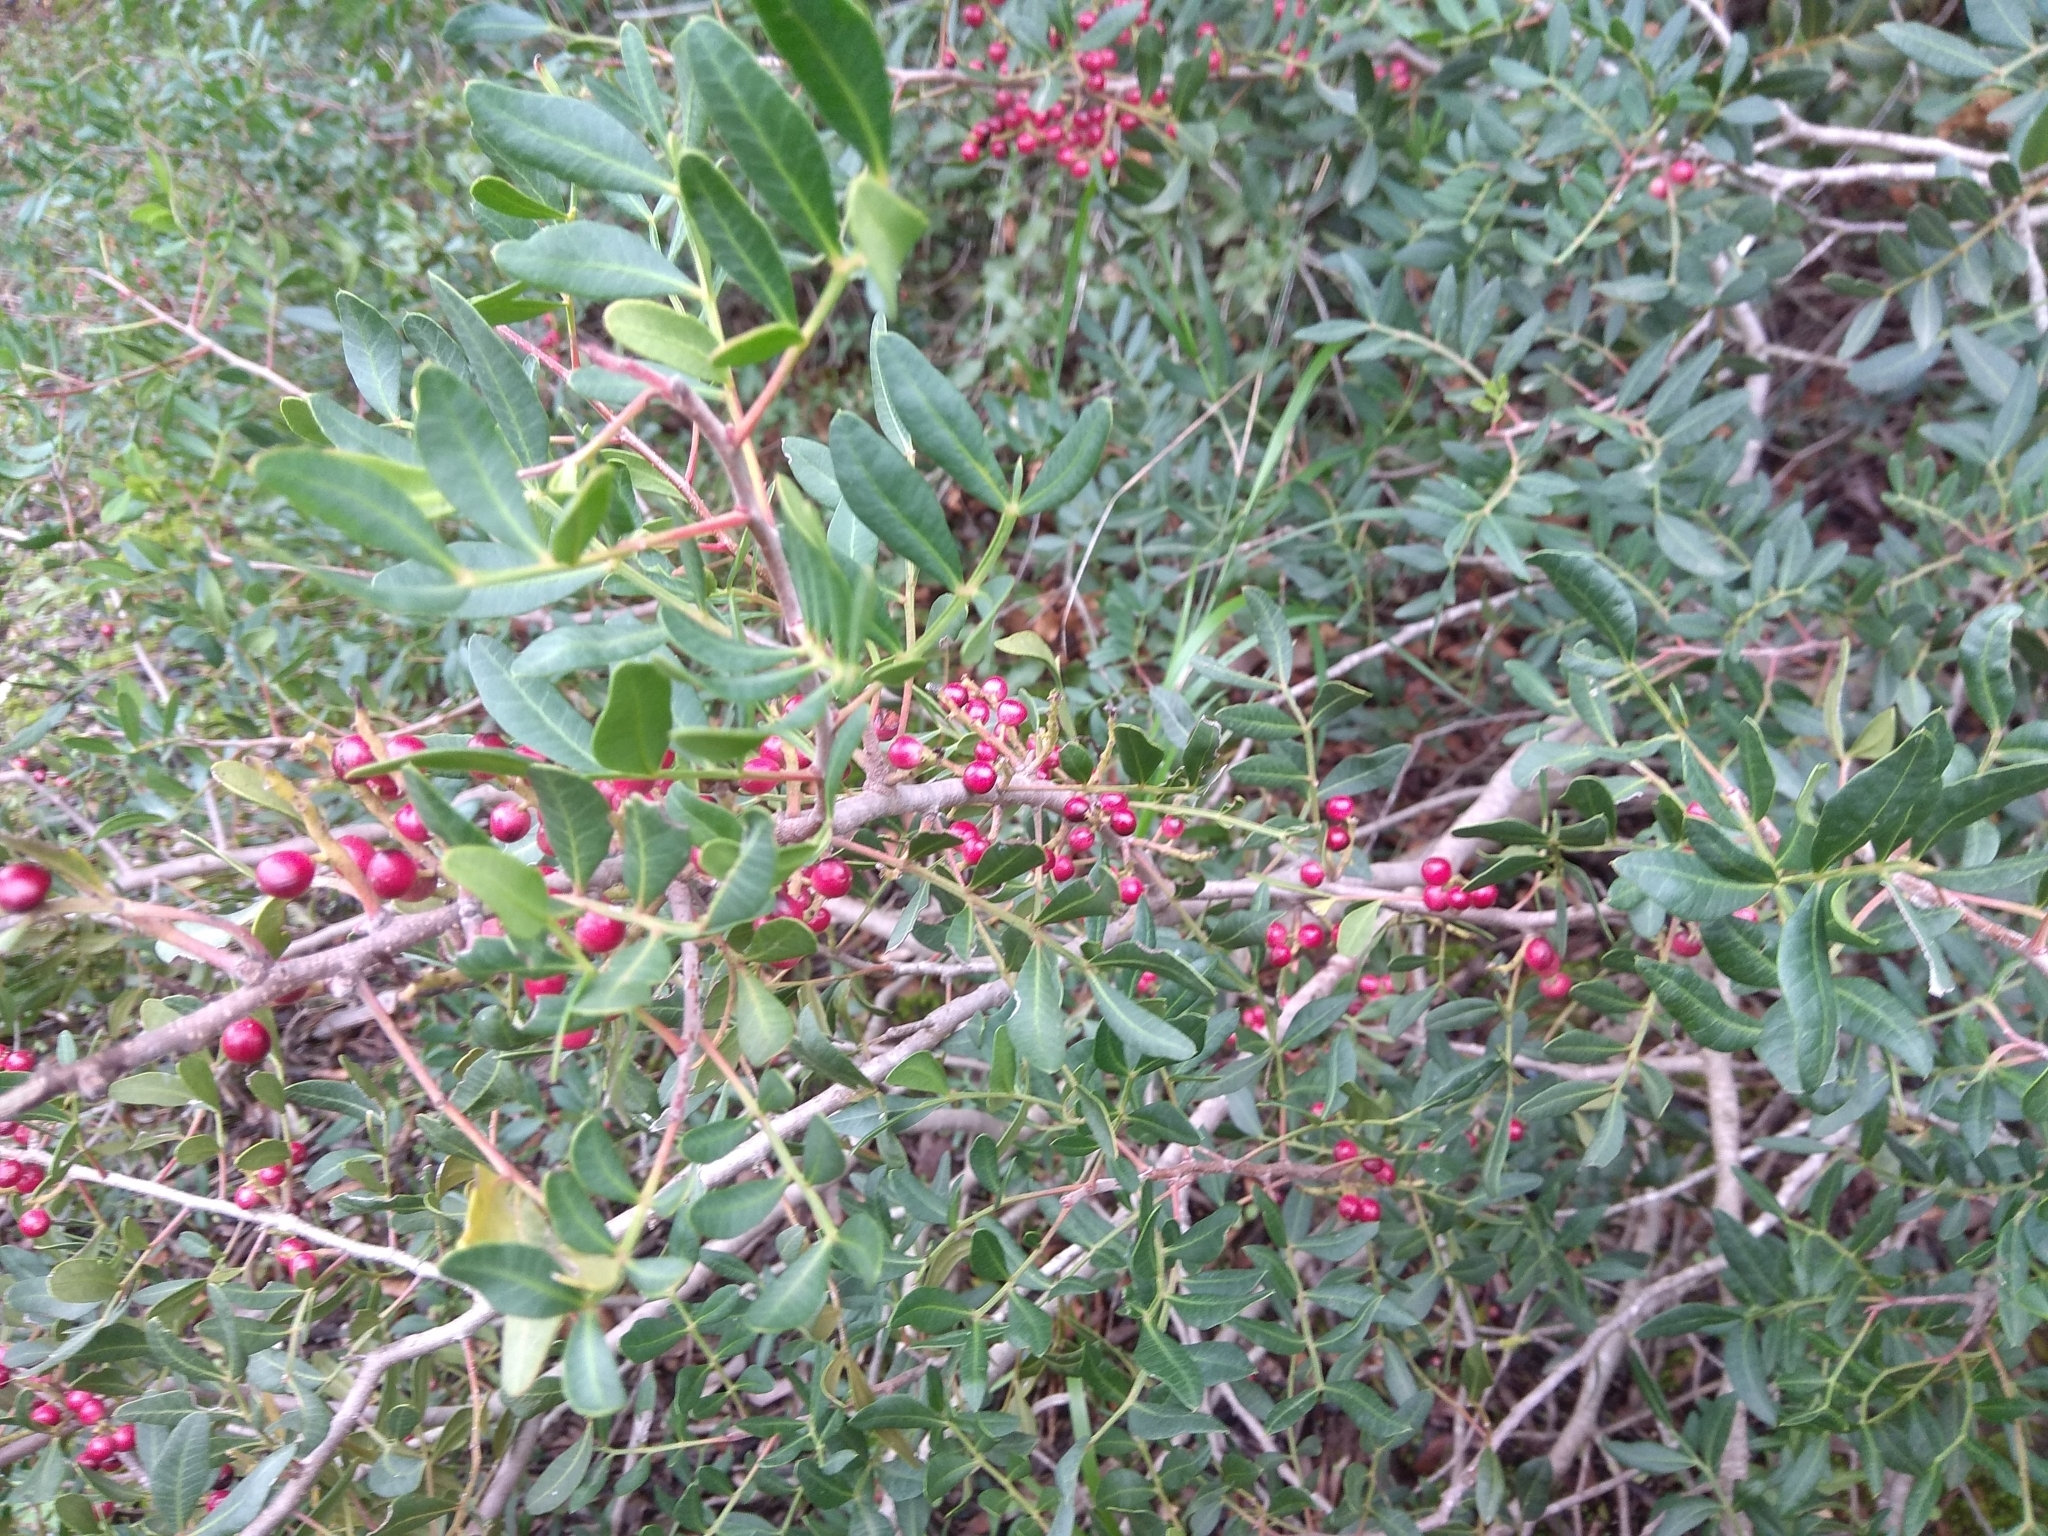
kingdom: Plantae
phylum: Tracheophyta
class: Magnoliopsida
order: Sapindales
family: Anacardiaceae
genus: Pistacia
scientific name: Pistacia lentiscus
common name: Lentisk
